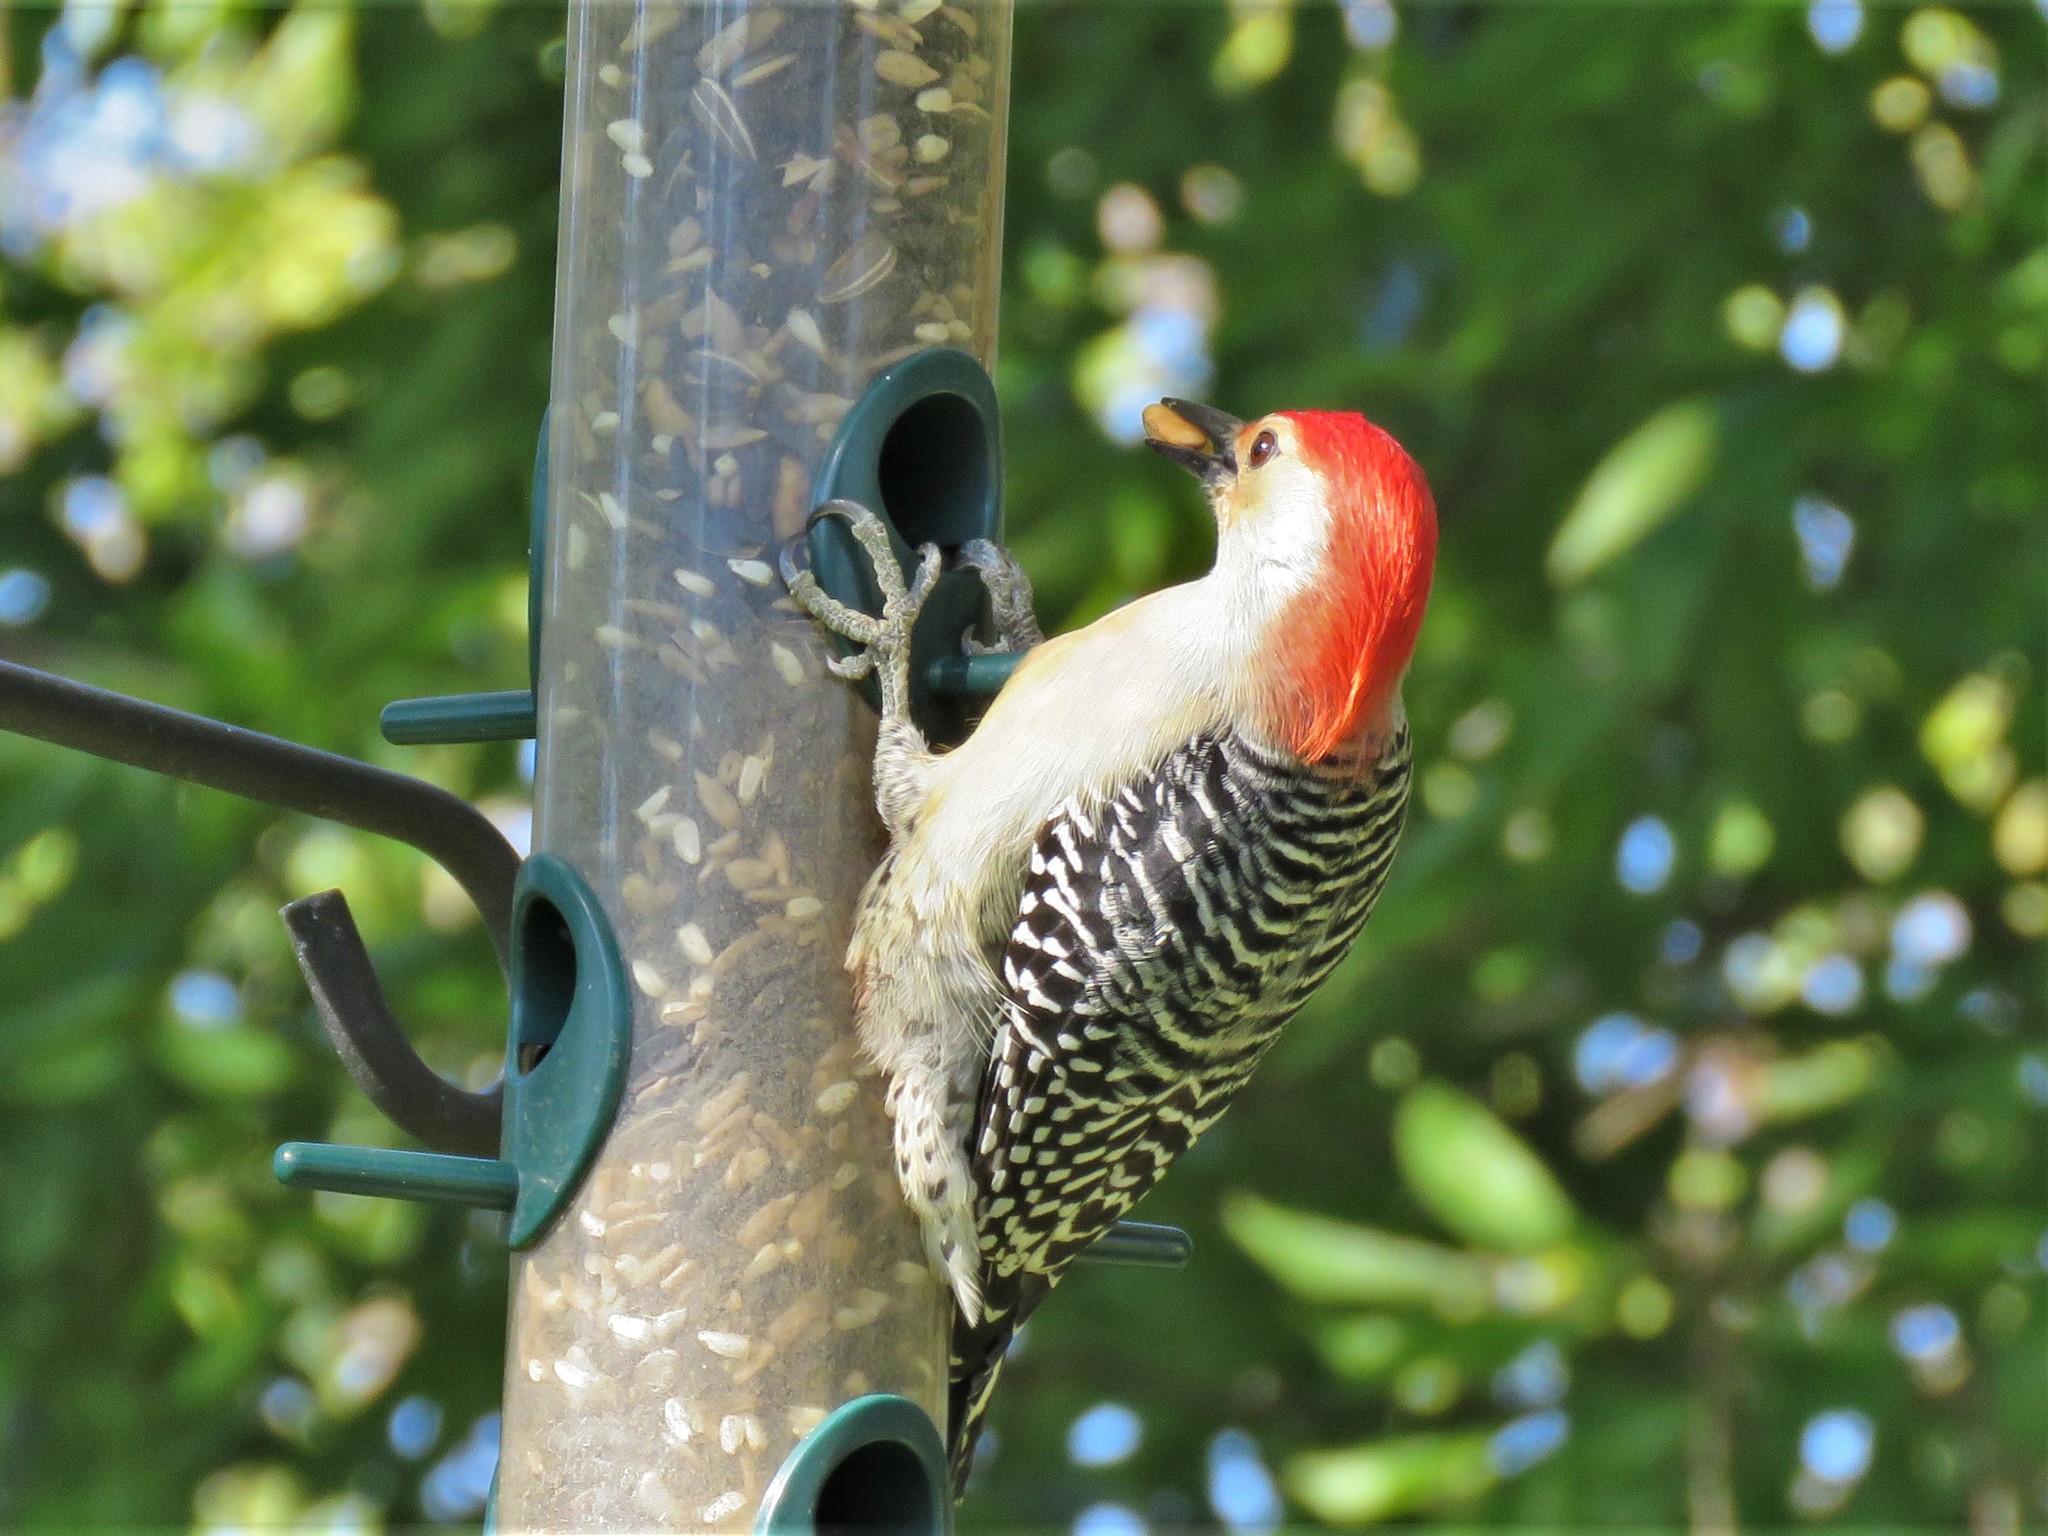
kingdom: Animalia
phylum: Chordata
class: Aves
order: Piciformes
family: Picidae
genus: Melanerpes
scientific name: Melanerpes carolinus
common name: Red-bellied woodpecker
